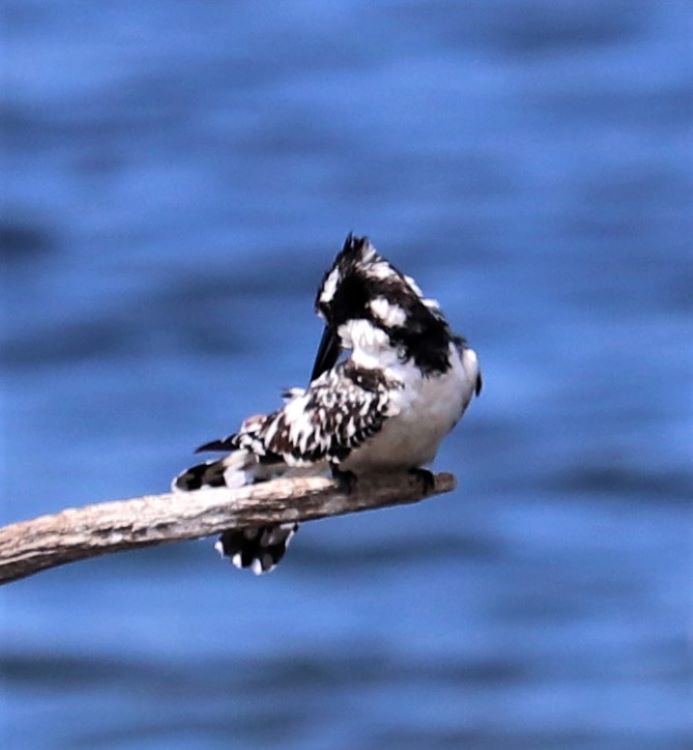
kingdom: Animalia
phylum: Chordata
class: Aves
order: Coraciiformes
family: Alcedinidae
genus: Ceryle
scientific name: Ceryle rudis
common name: Pied kingfisher
